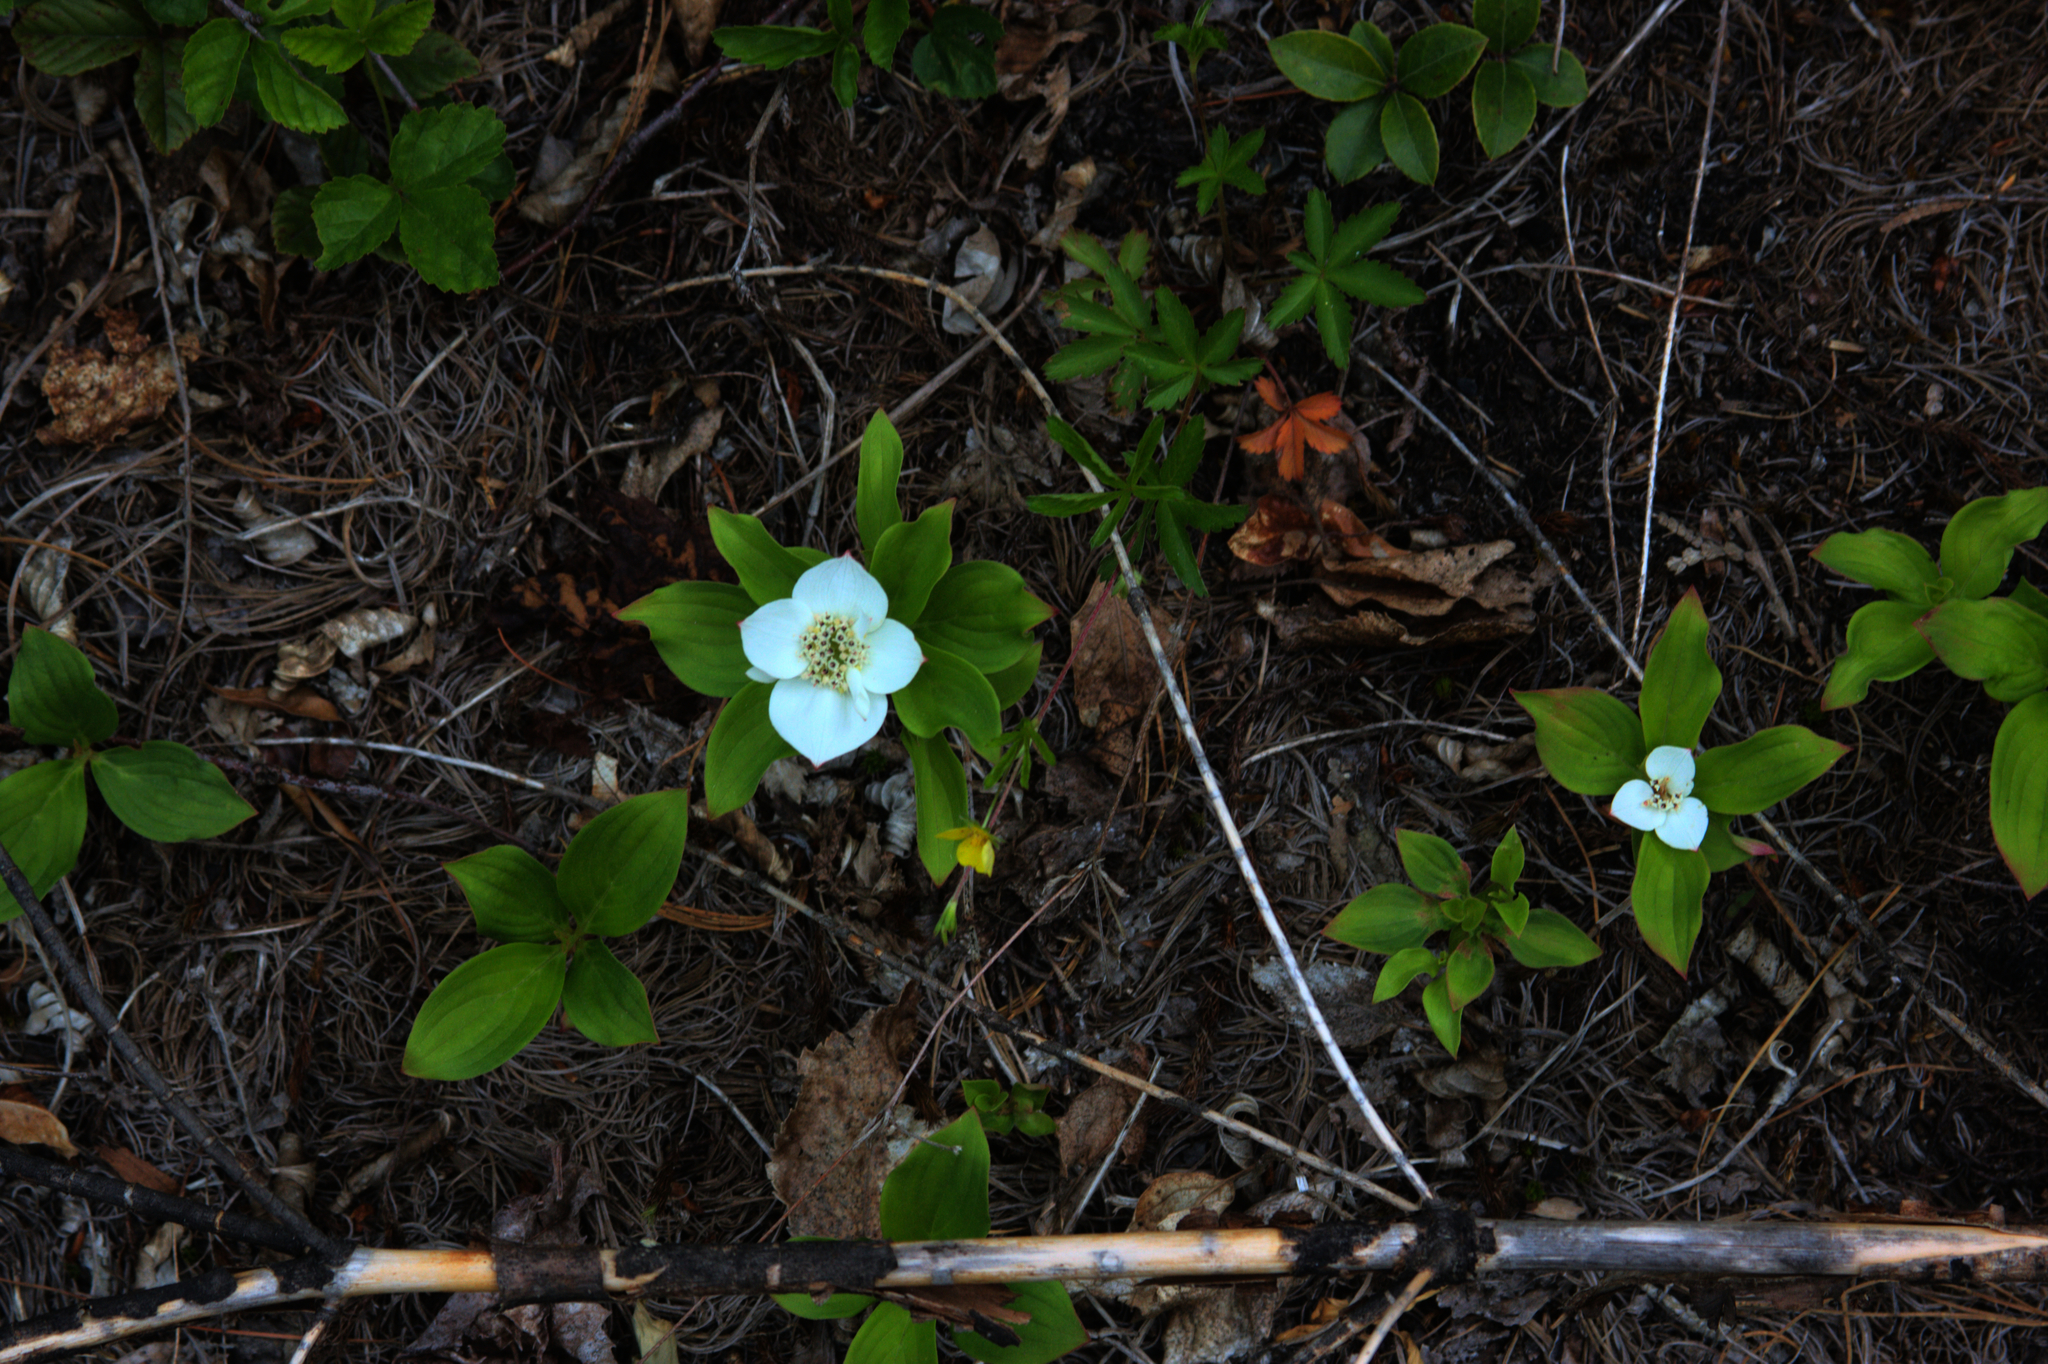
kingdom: Plantae
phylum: Tracheophyta
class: Magnoliopsida
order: Ericales
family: Ericaceae
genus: Gaultheria
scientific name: Gaultheria procumbens
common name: Checkerberry
